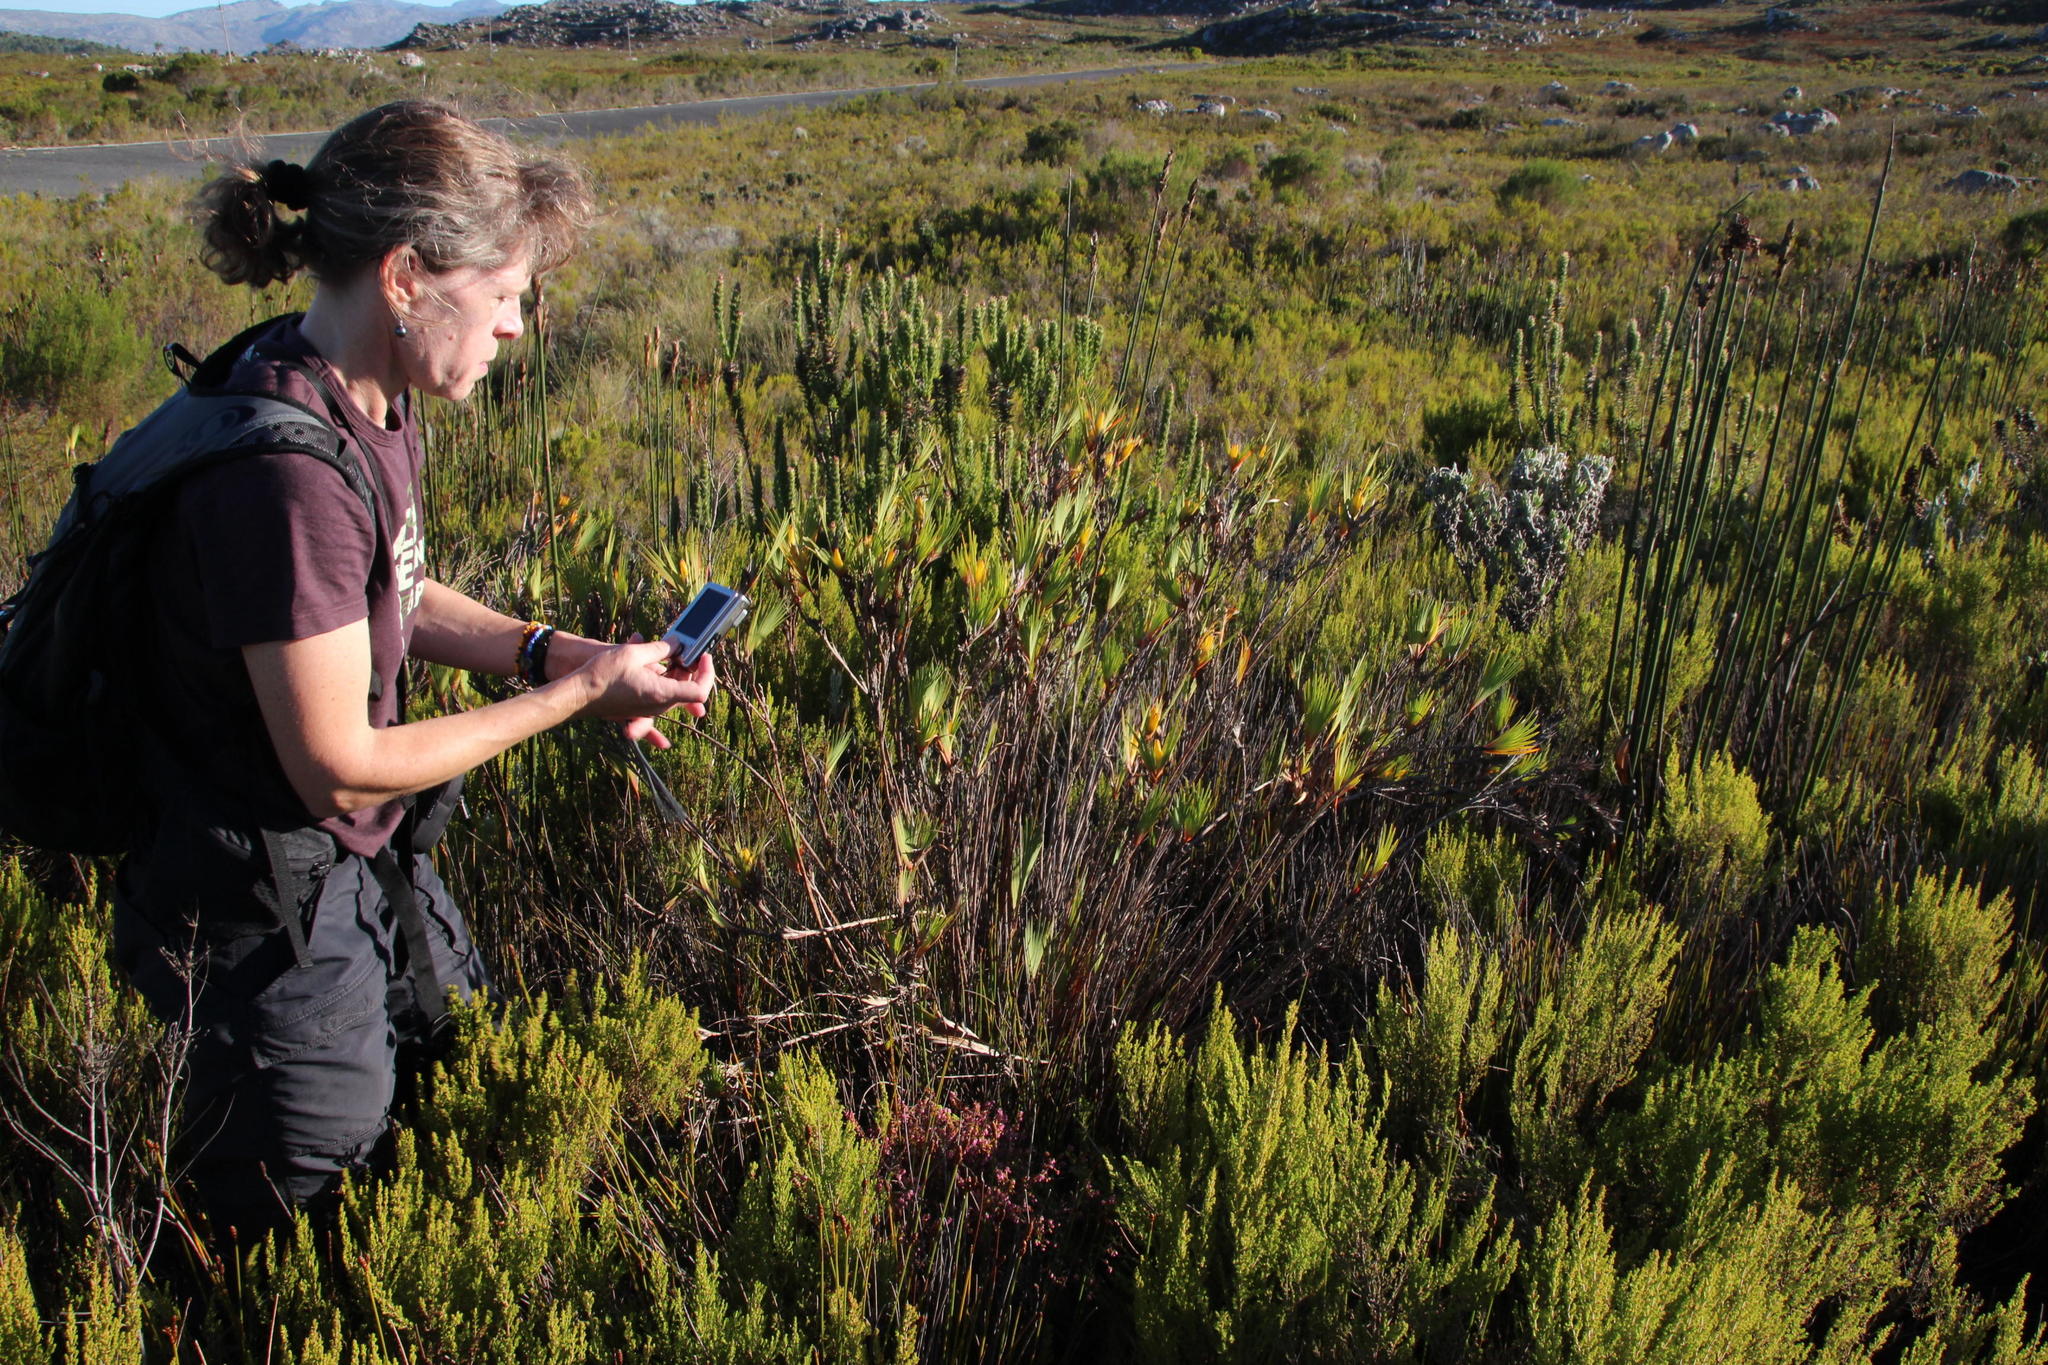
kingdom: Plantae
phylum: Tracheophyta
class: Liliopsida
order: Asparagales
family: Iridaceae
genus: Witsenia
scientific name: Witsenia maura
